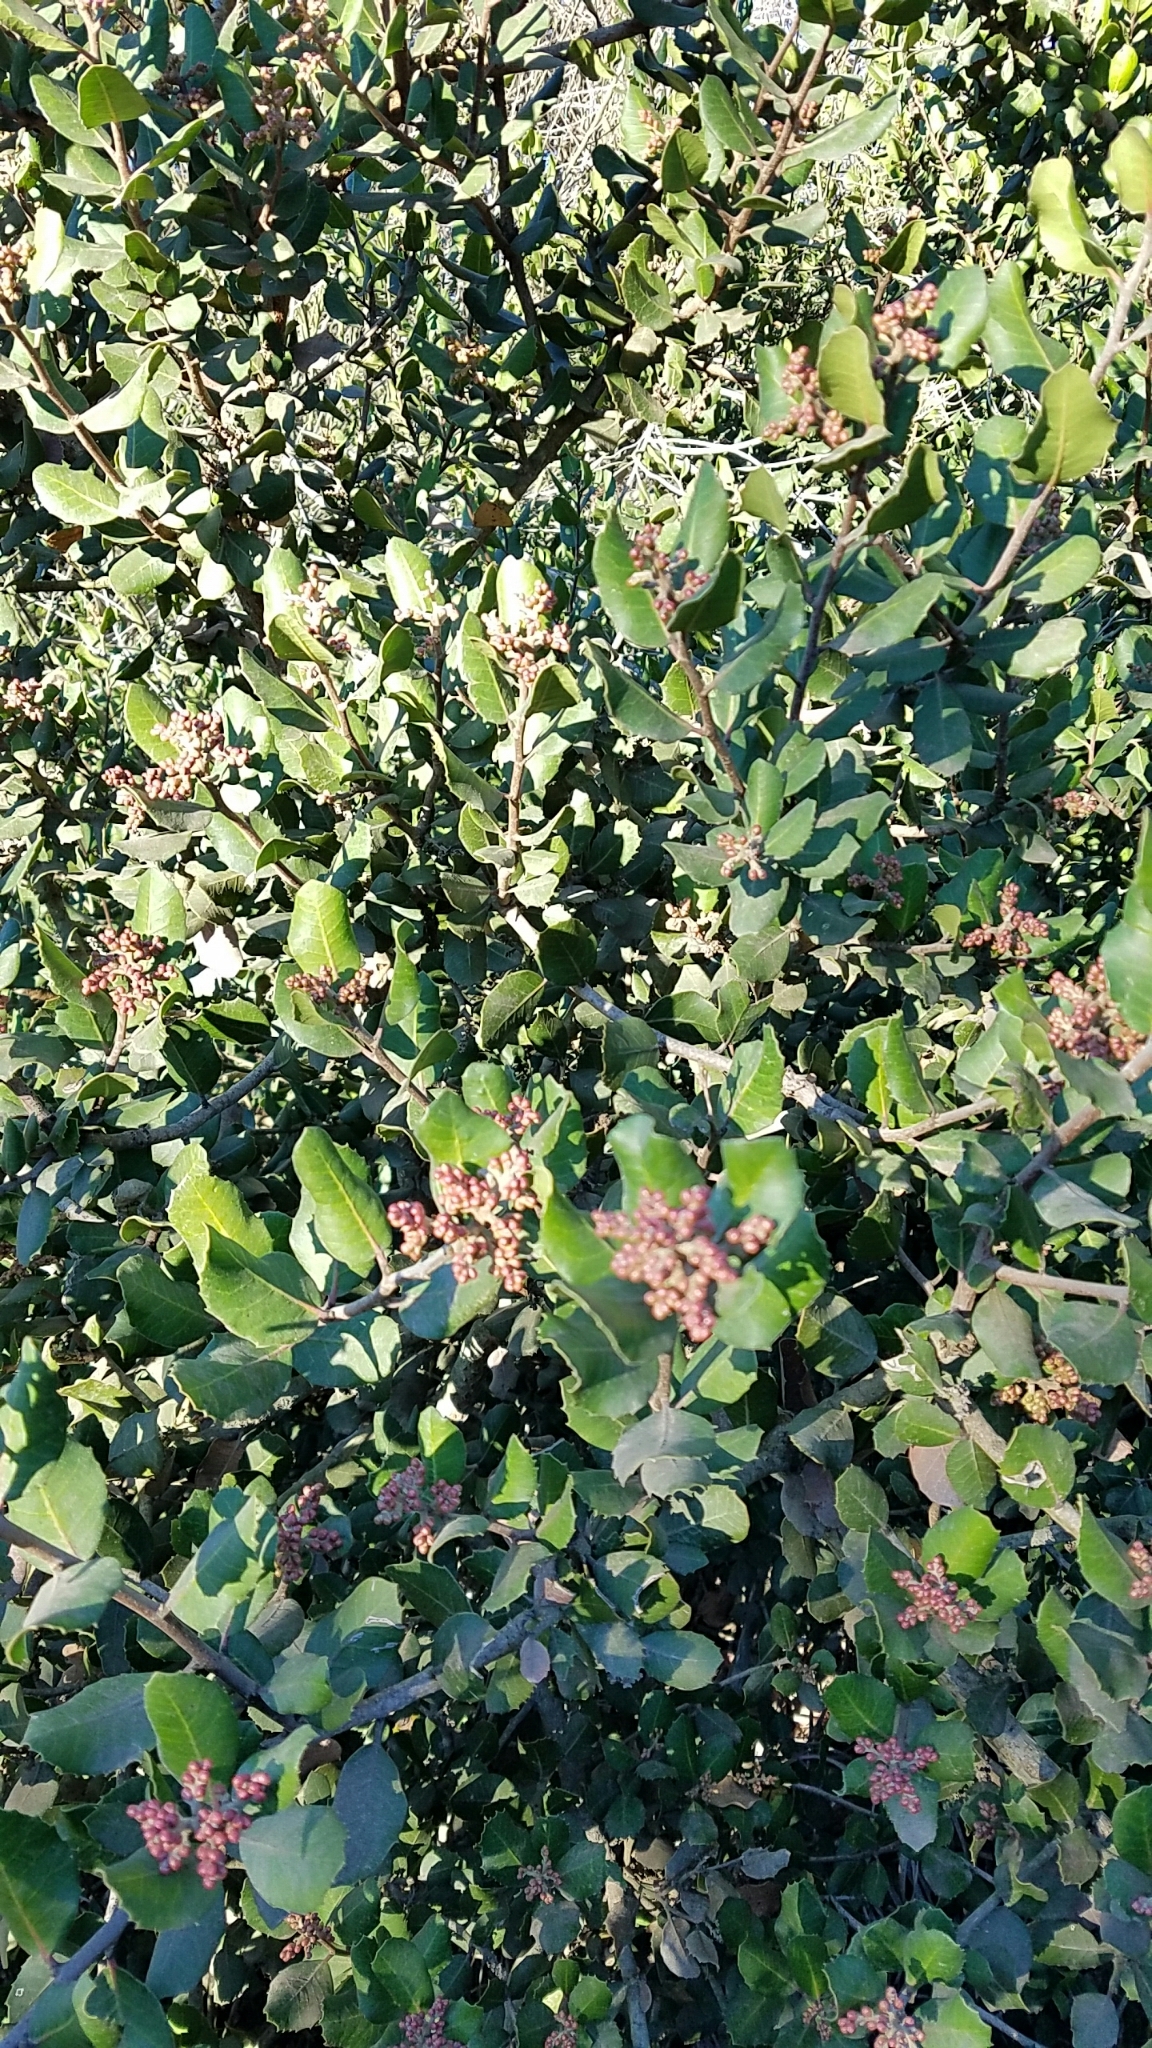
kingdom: Plantae
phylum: Tracheophyta
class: Magnoliopsida
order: Sapindales
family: Anacardiaceae
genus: Rhus
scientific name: Rhus integrifolia
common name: Lemonade sumac
